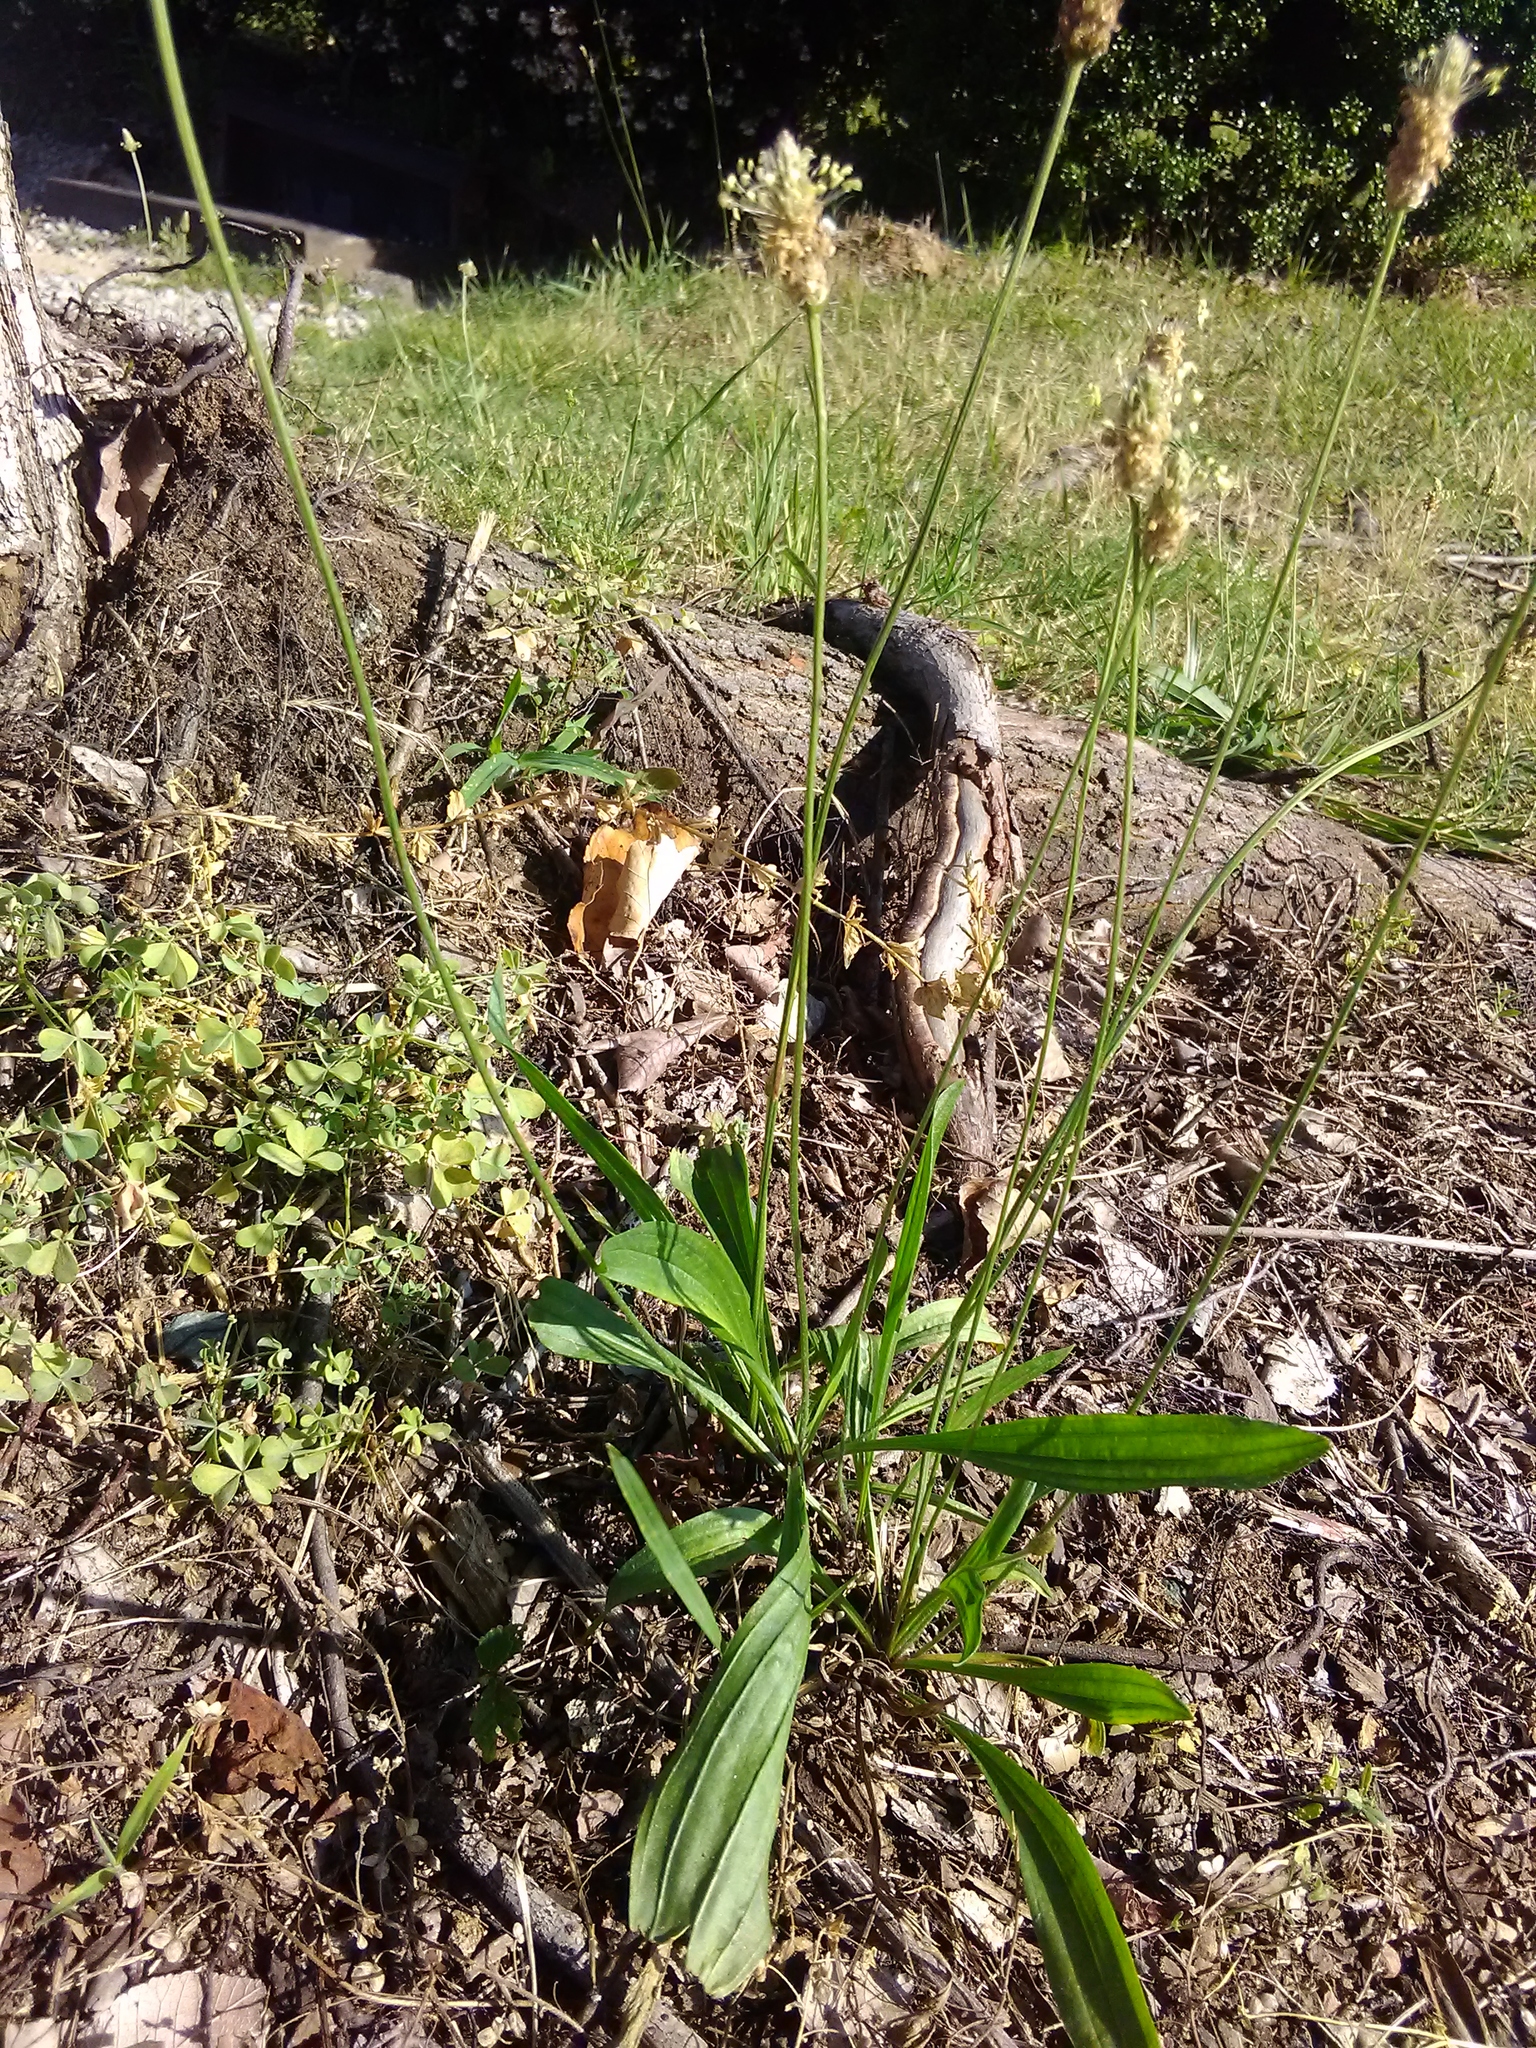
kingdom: Plantae
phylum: Tracheophyta
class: Magnoliopsida
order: Lamiales
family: Plantaginaceae
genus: Plantago
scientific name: Plantago lanceolata
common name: Ribwort plantain
